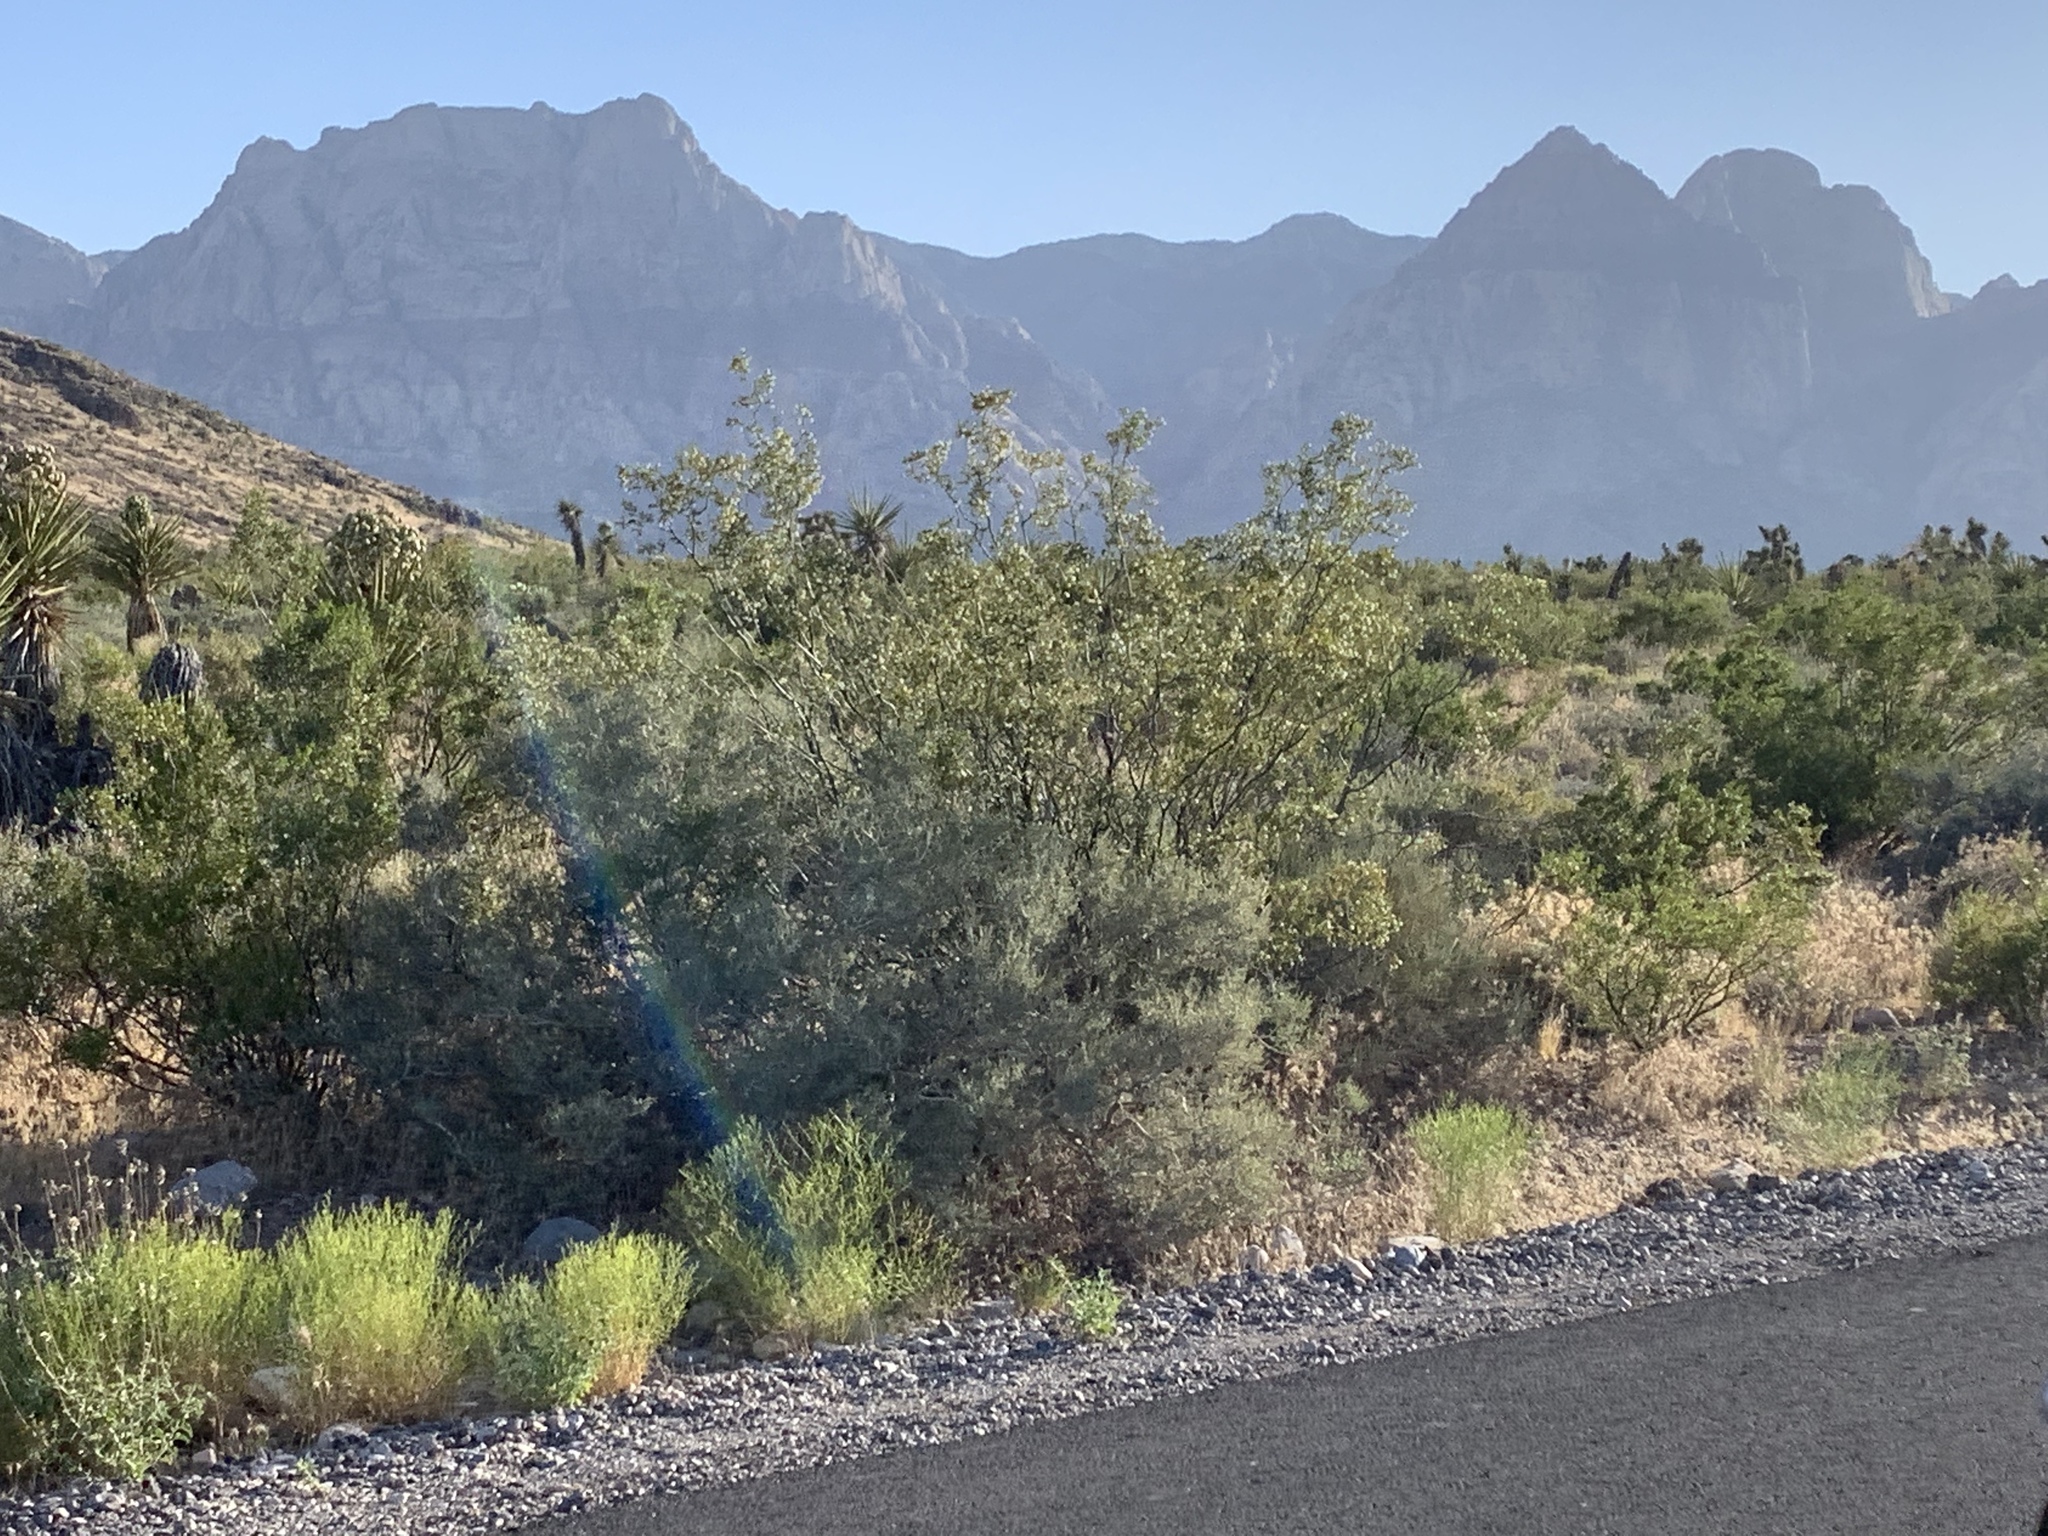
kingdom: Plantae
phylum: Tracheophyta
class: Magnoliopsida
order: Zygophyllales
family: Zygophyllaceae
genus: Larrea
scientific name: Larrea tridentata
